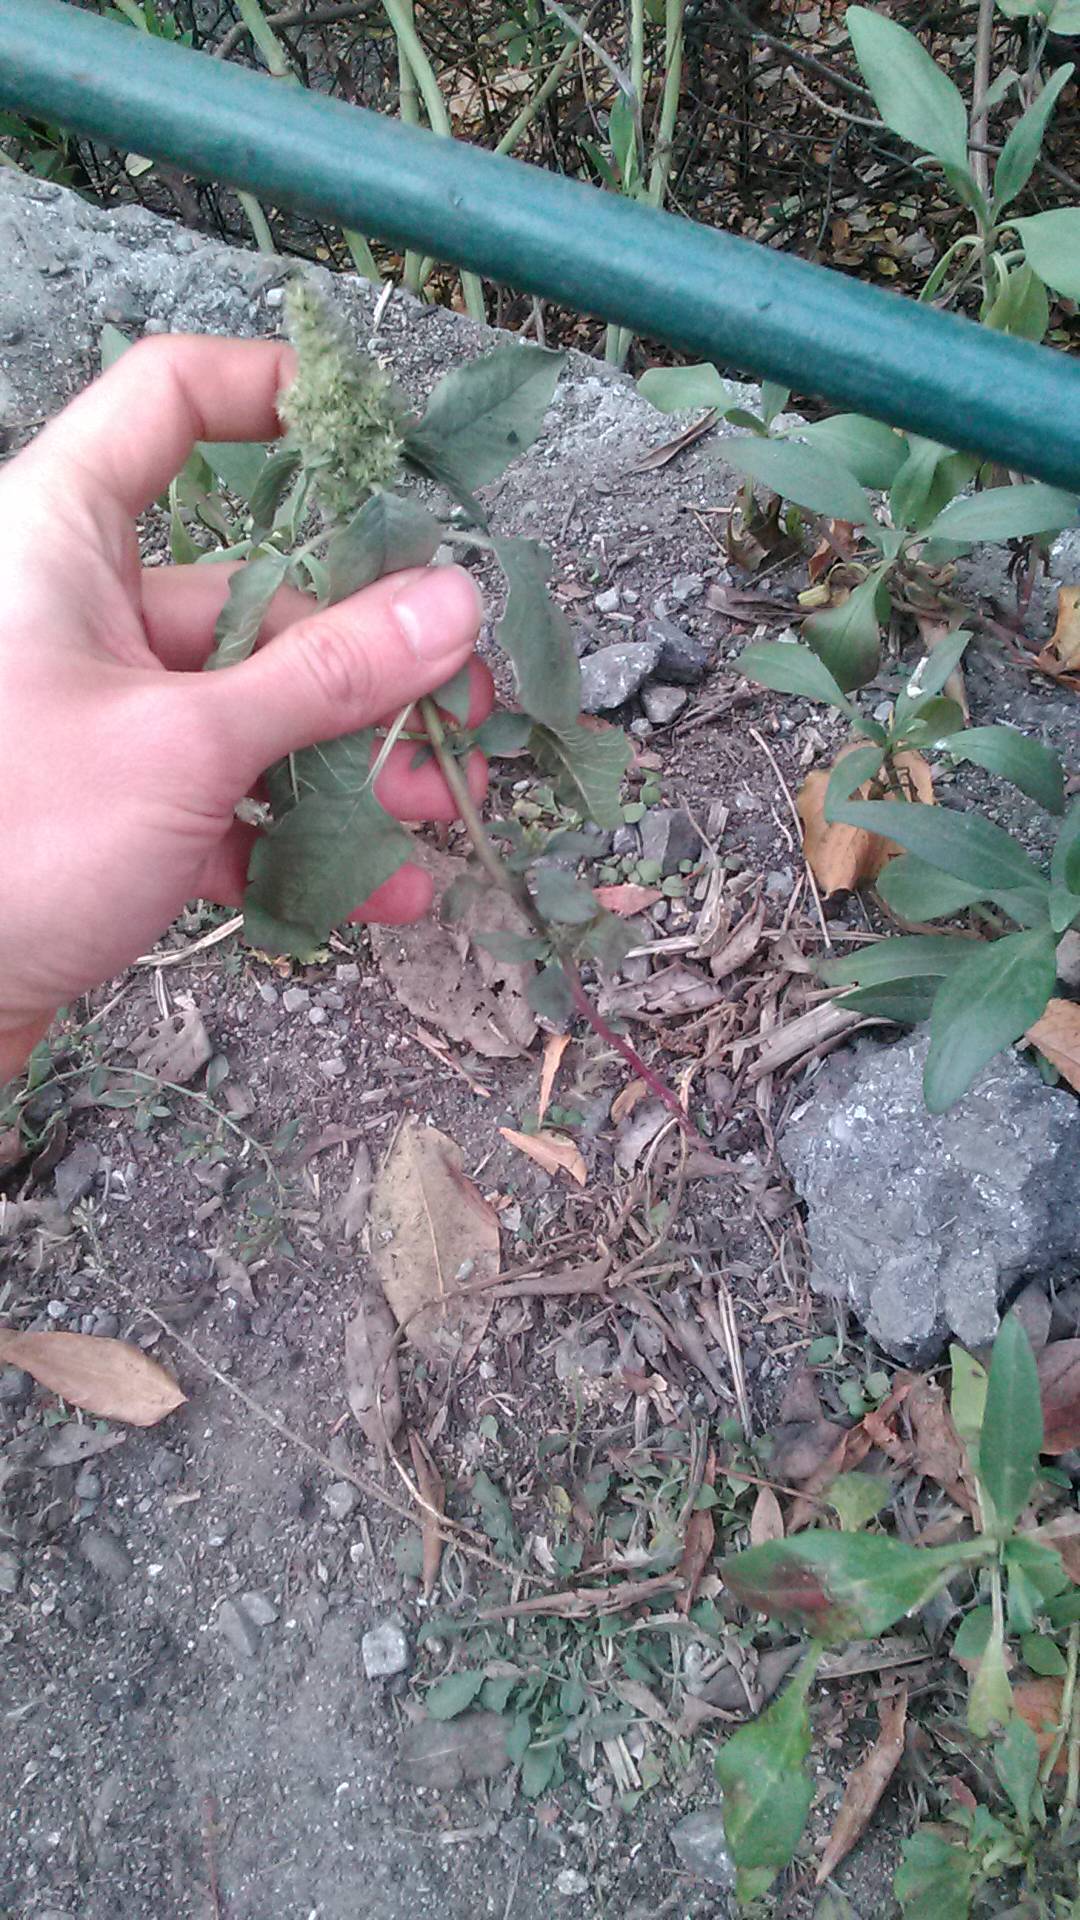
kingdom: Plantae
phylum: Tracheophyta
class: Magnoliopsida
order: Caryophyllales
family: Amaranthaceae
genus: Amaranthus
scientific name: Amaranthus retroflexus
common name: Redroot amaranth
